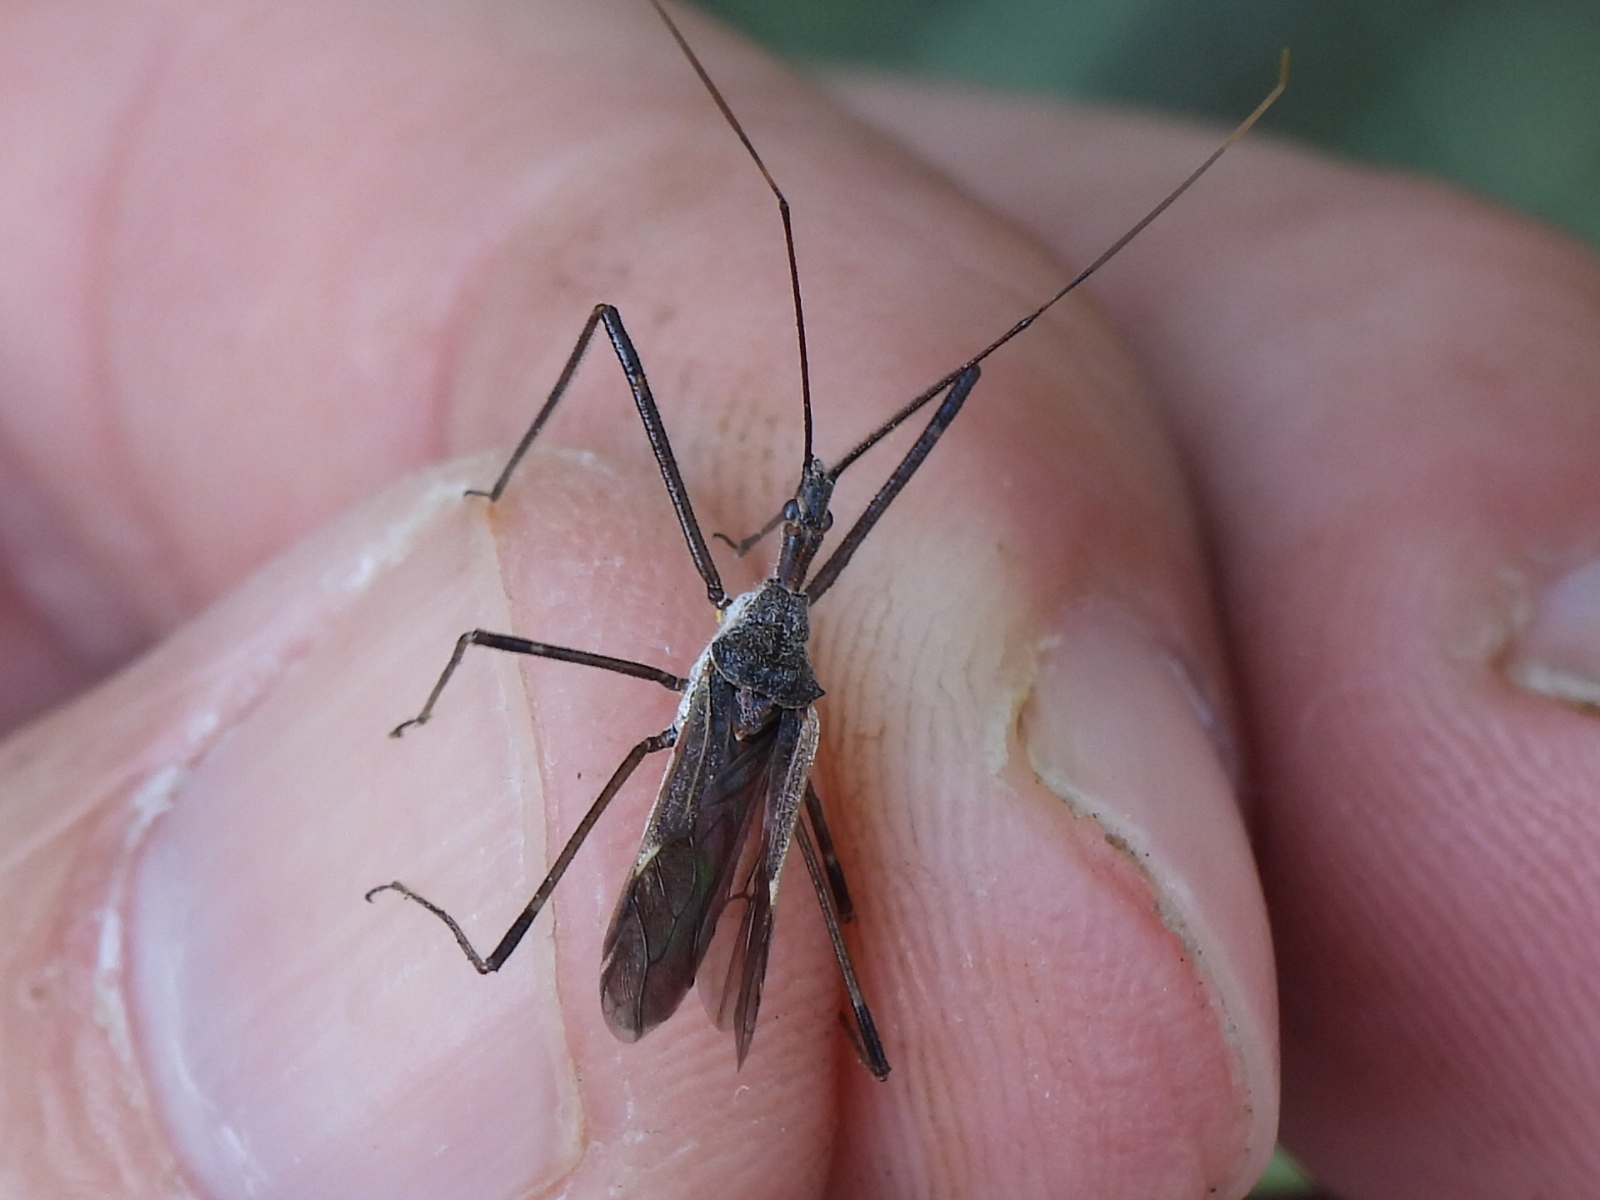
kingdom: Animalia
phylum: Arthropoda
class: Insecta
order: Hemiptera
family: Reduviidae
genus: Zelus
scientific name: Zelus tetracanthus
